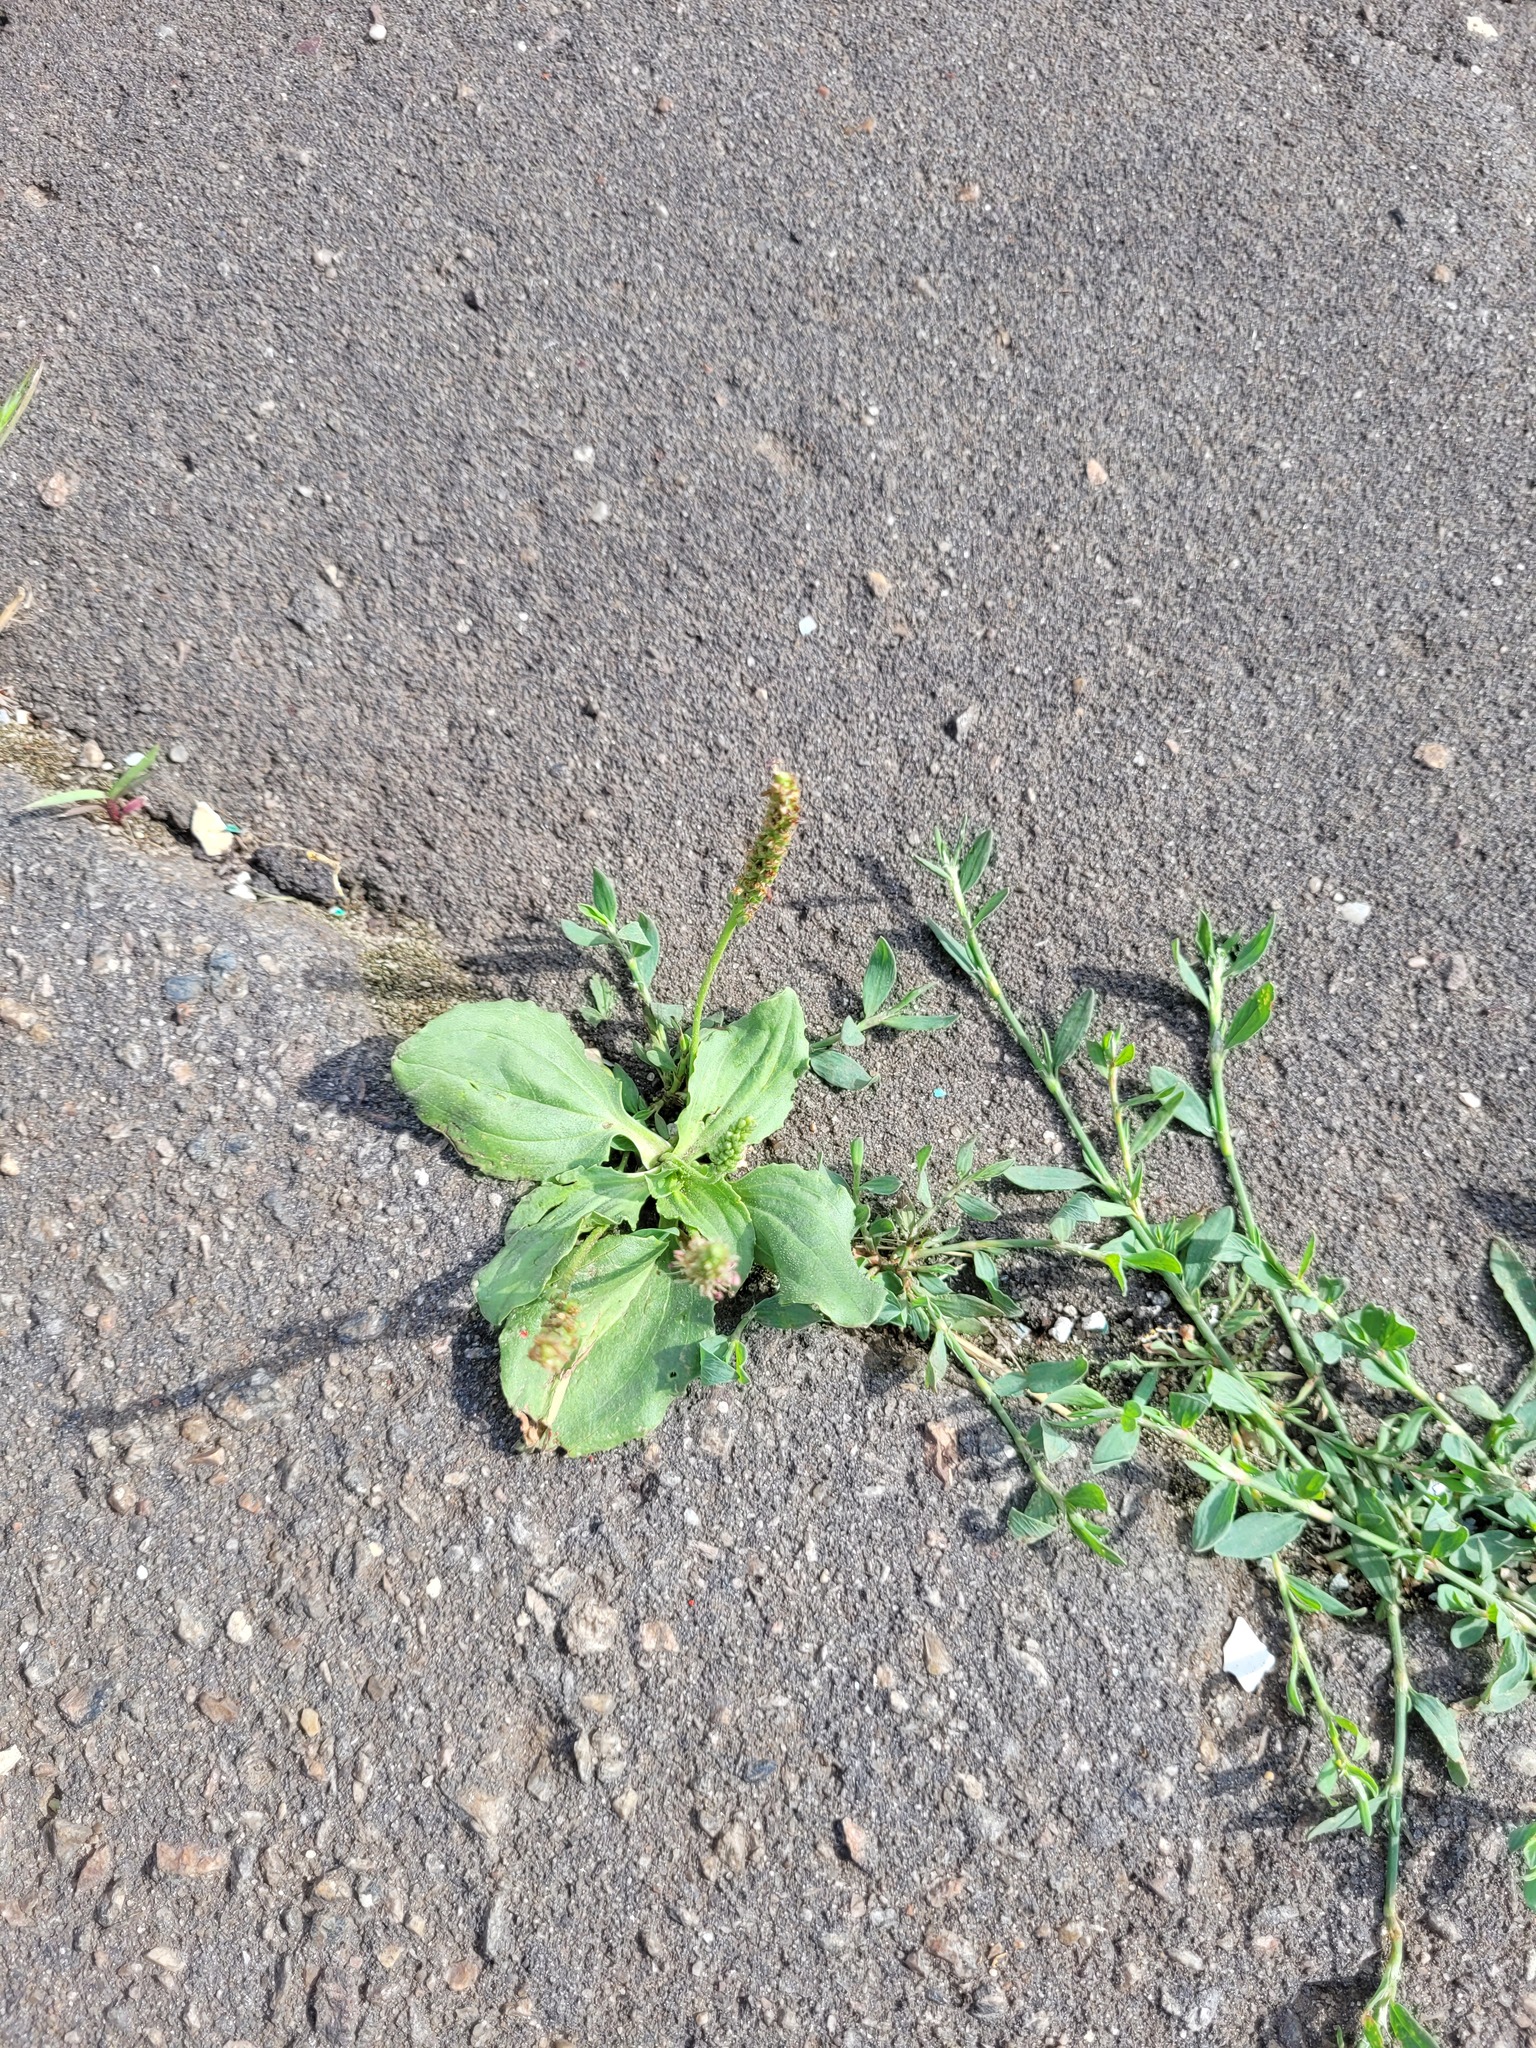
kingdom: Plantae
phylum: Tracheophyta
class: Magnoliopsida
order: Lamiales
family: Plantaginaceae
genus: Plantago
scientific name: Plantago major
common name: Common plantain
